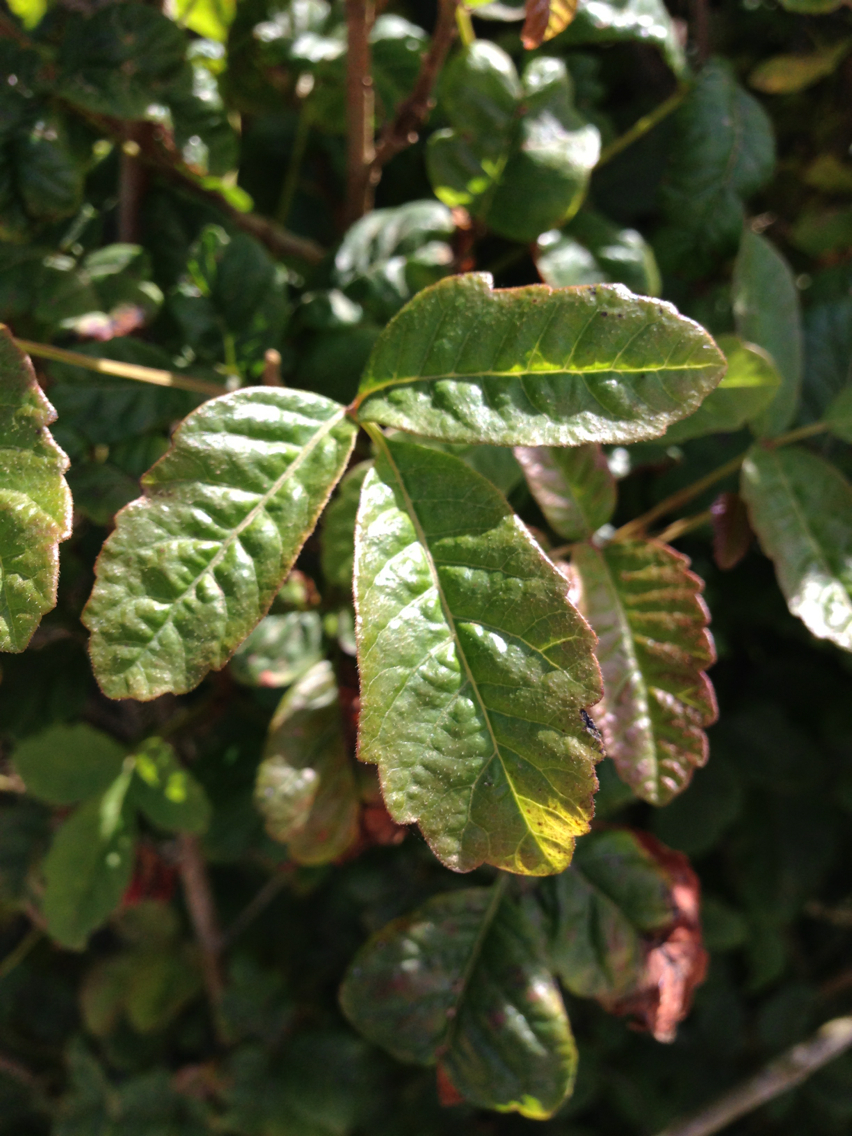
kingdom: Plantae
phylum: Tracheophyta
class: Magnoliopsida
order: Sapindales
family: Anacardiaceae
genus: Toxicodendron
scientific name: Toxicodendron diversilobum
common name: Pacific poison-oak
